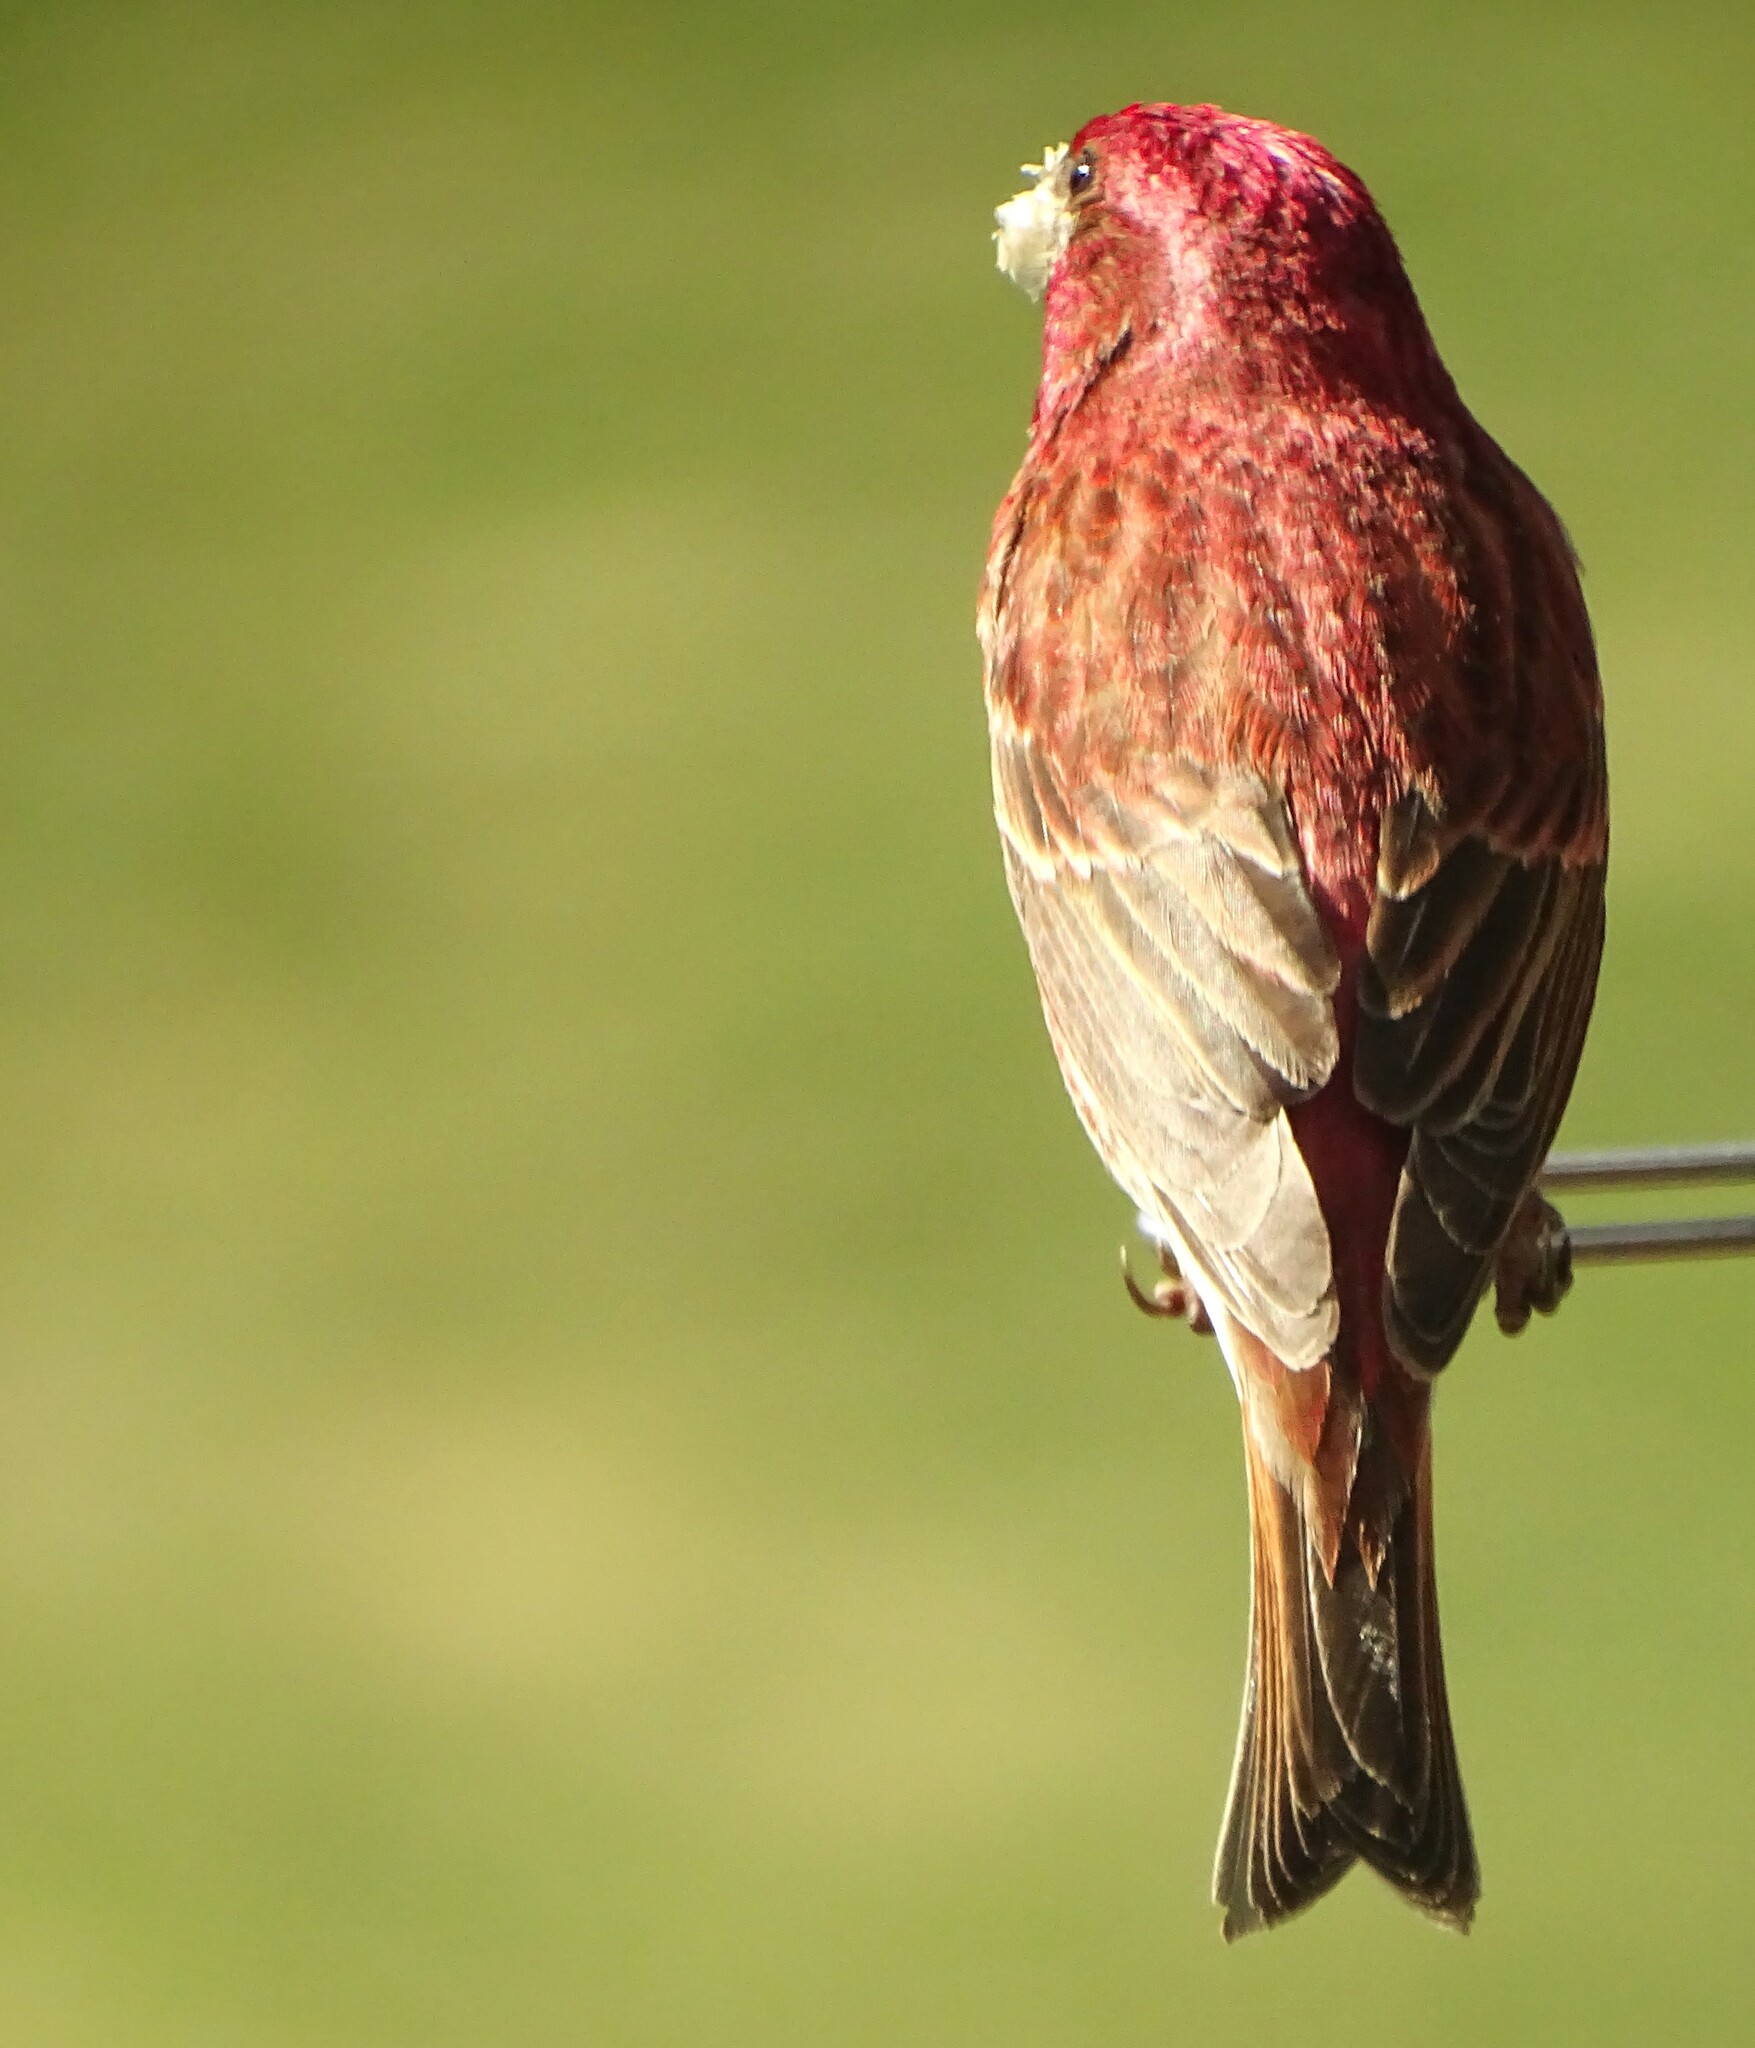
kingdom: Animalia
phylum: Chordata
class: Aves
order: Passeriformes
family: Fringillidae
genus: Haemorhous
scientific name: Haemorhous purpureus
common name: Purple finch
